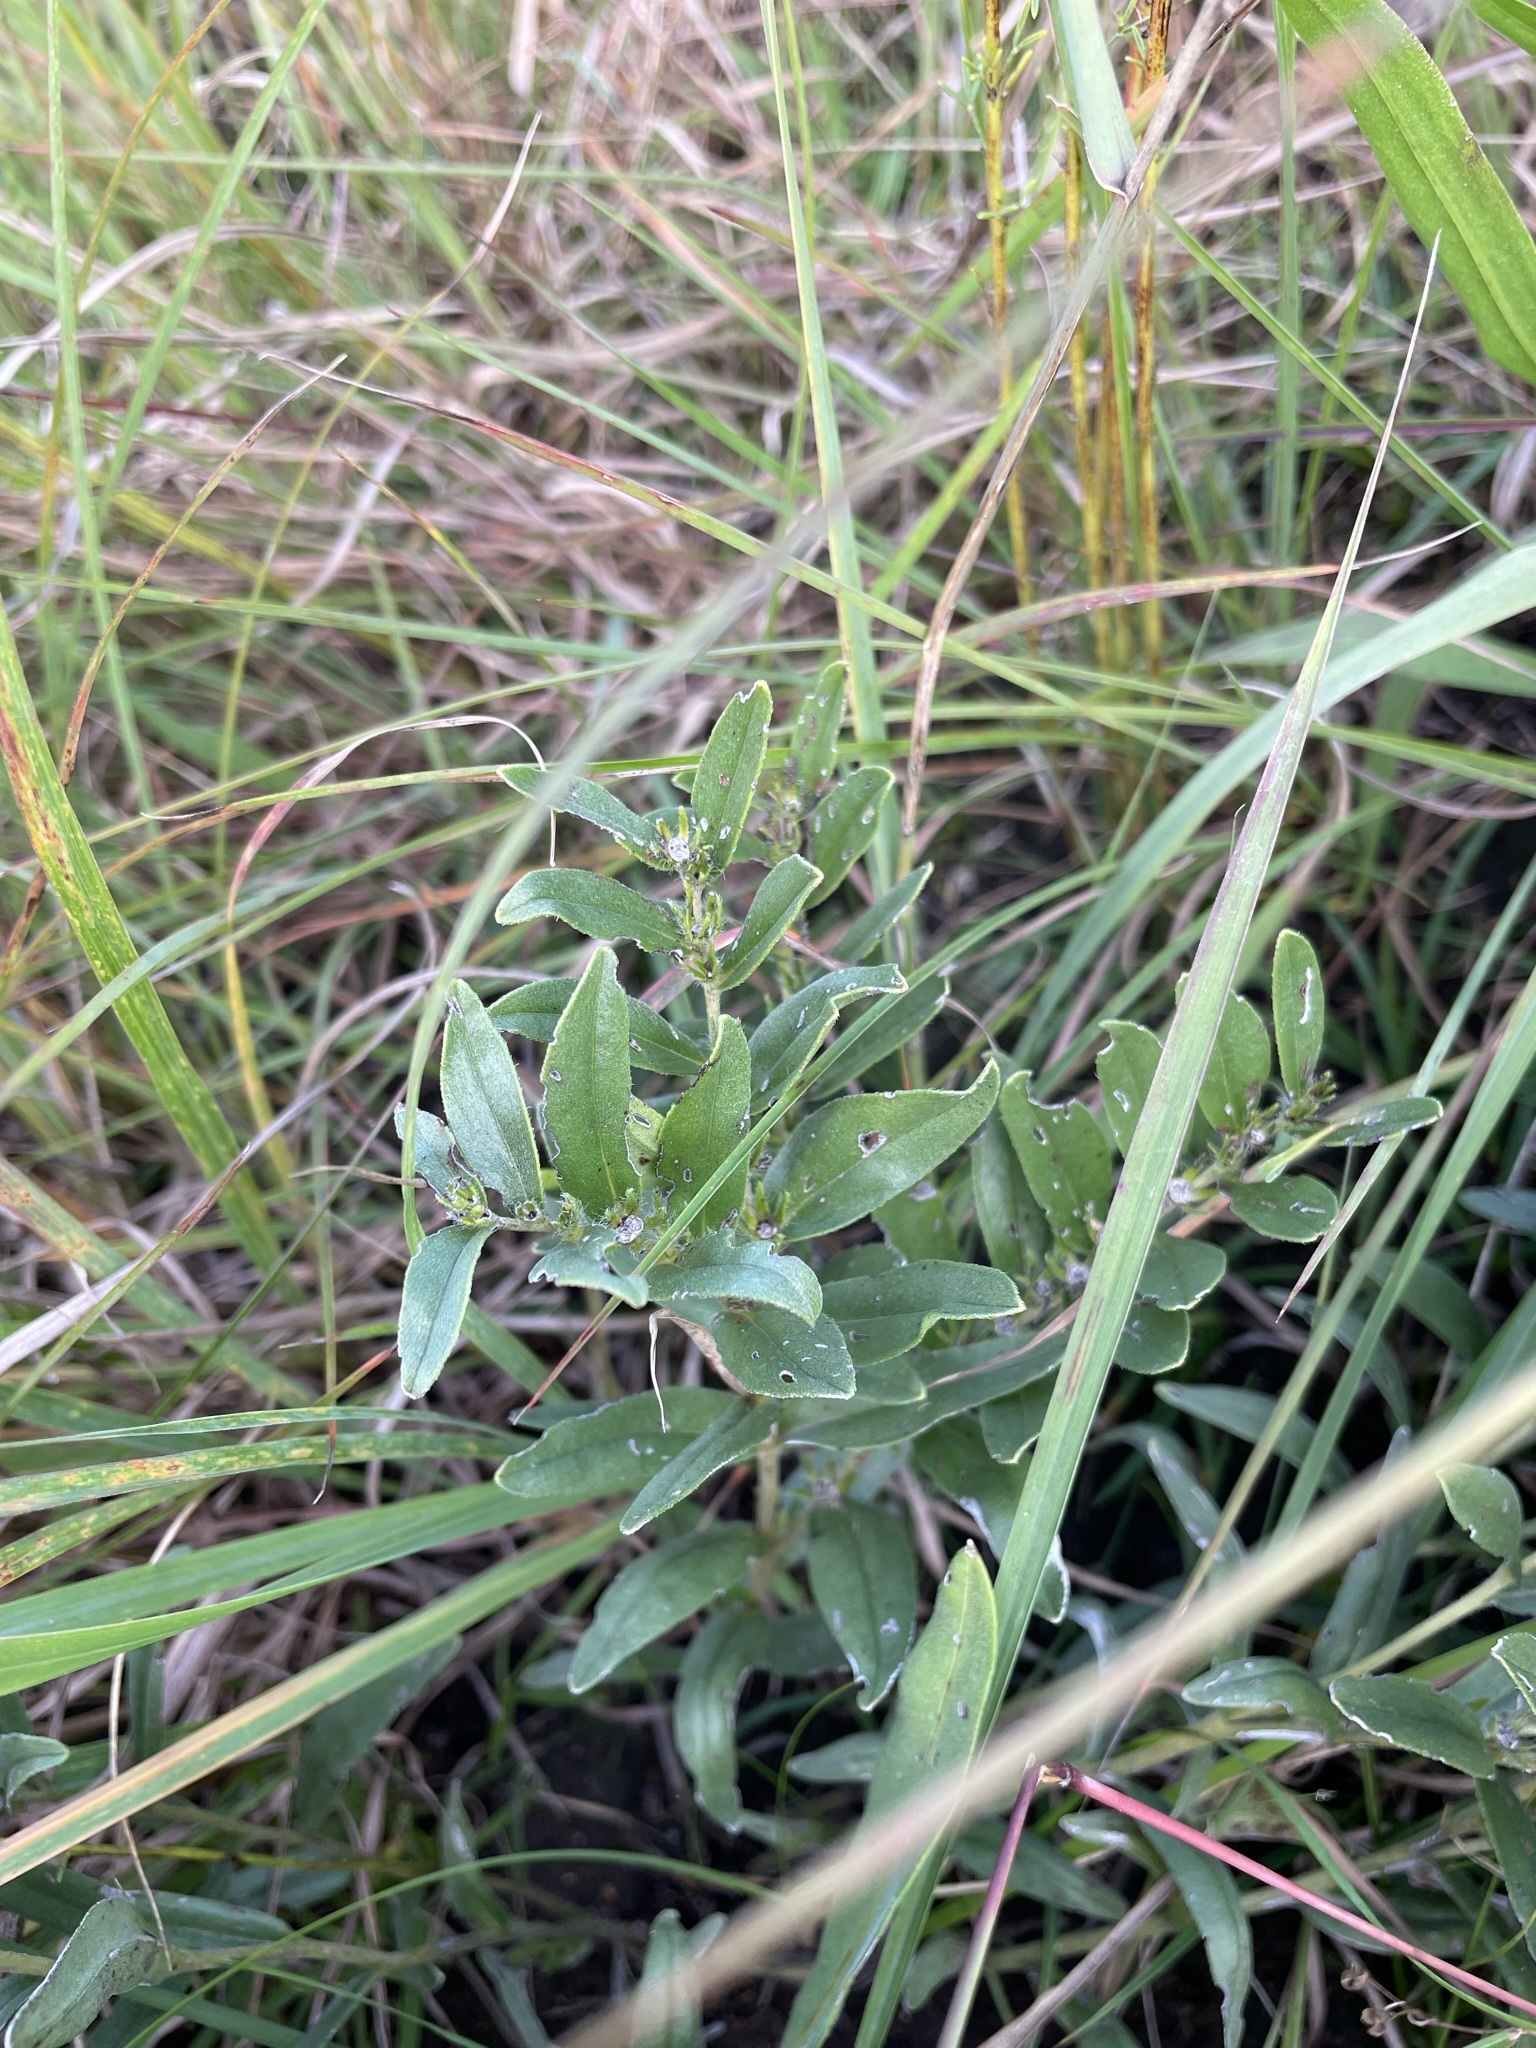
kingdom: Plantae
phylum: Tracheophyta
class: Magnoliopsida
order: Boraginales
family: Boraginaceae
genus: Lithospermum
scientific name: Lithospermum canescens
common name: Hoary puccoon
